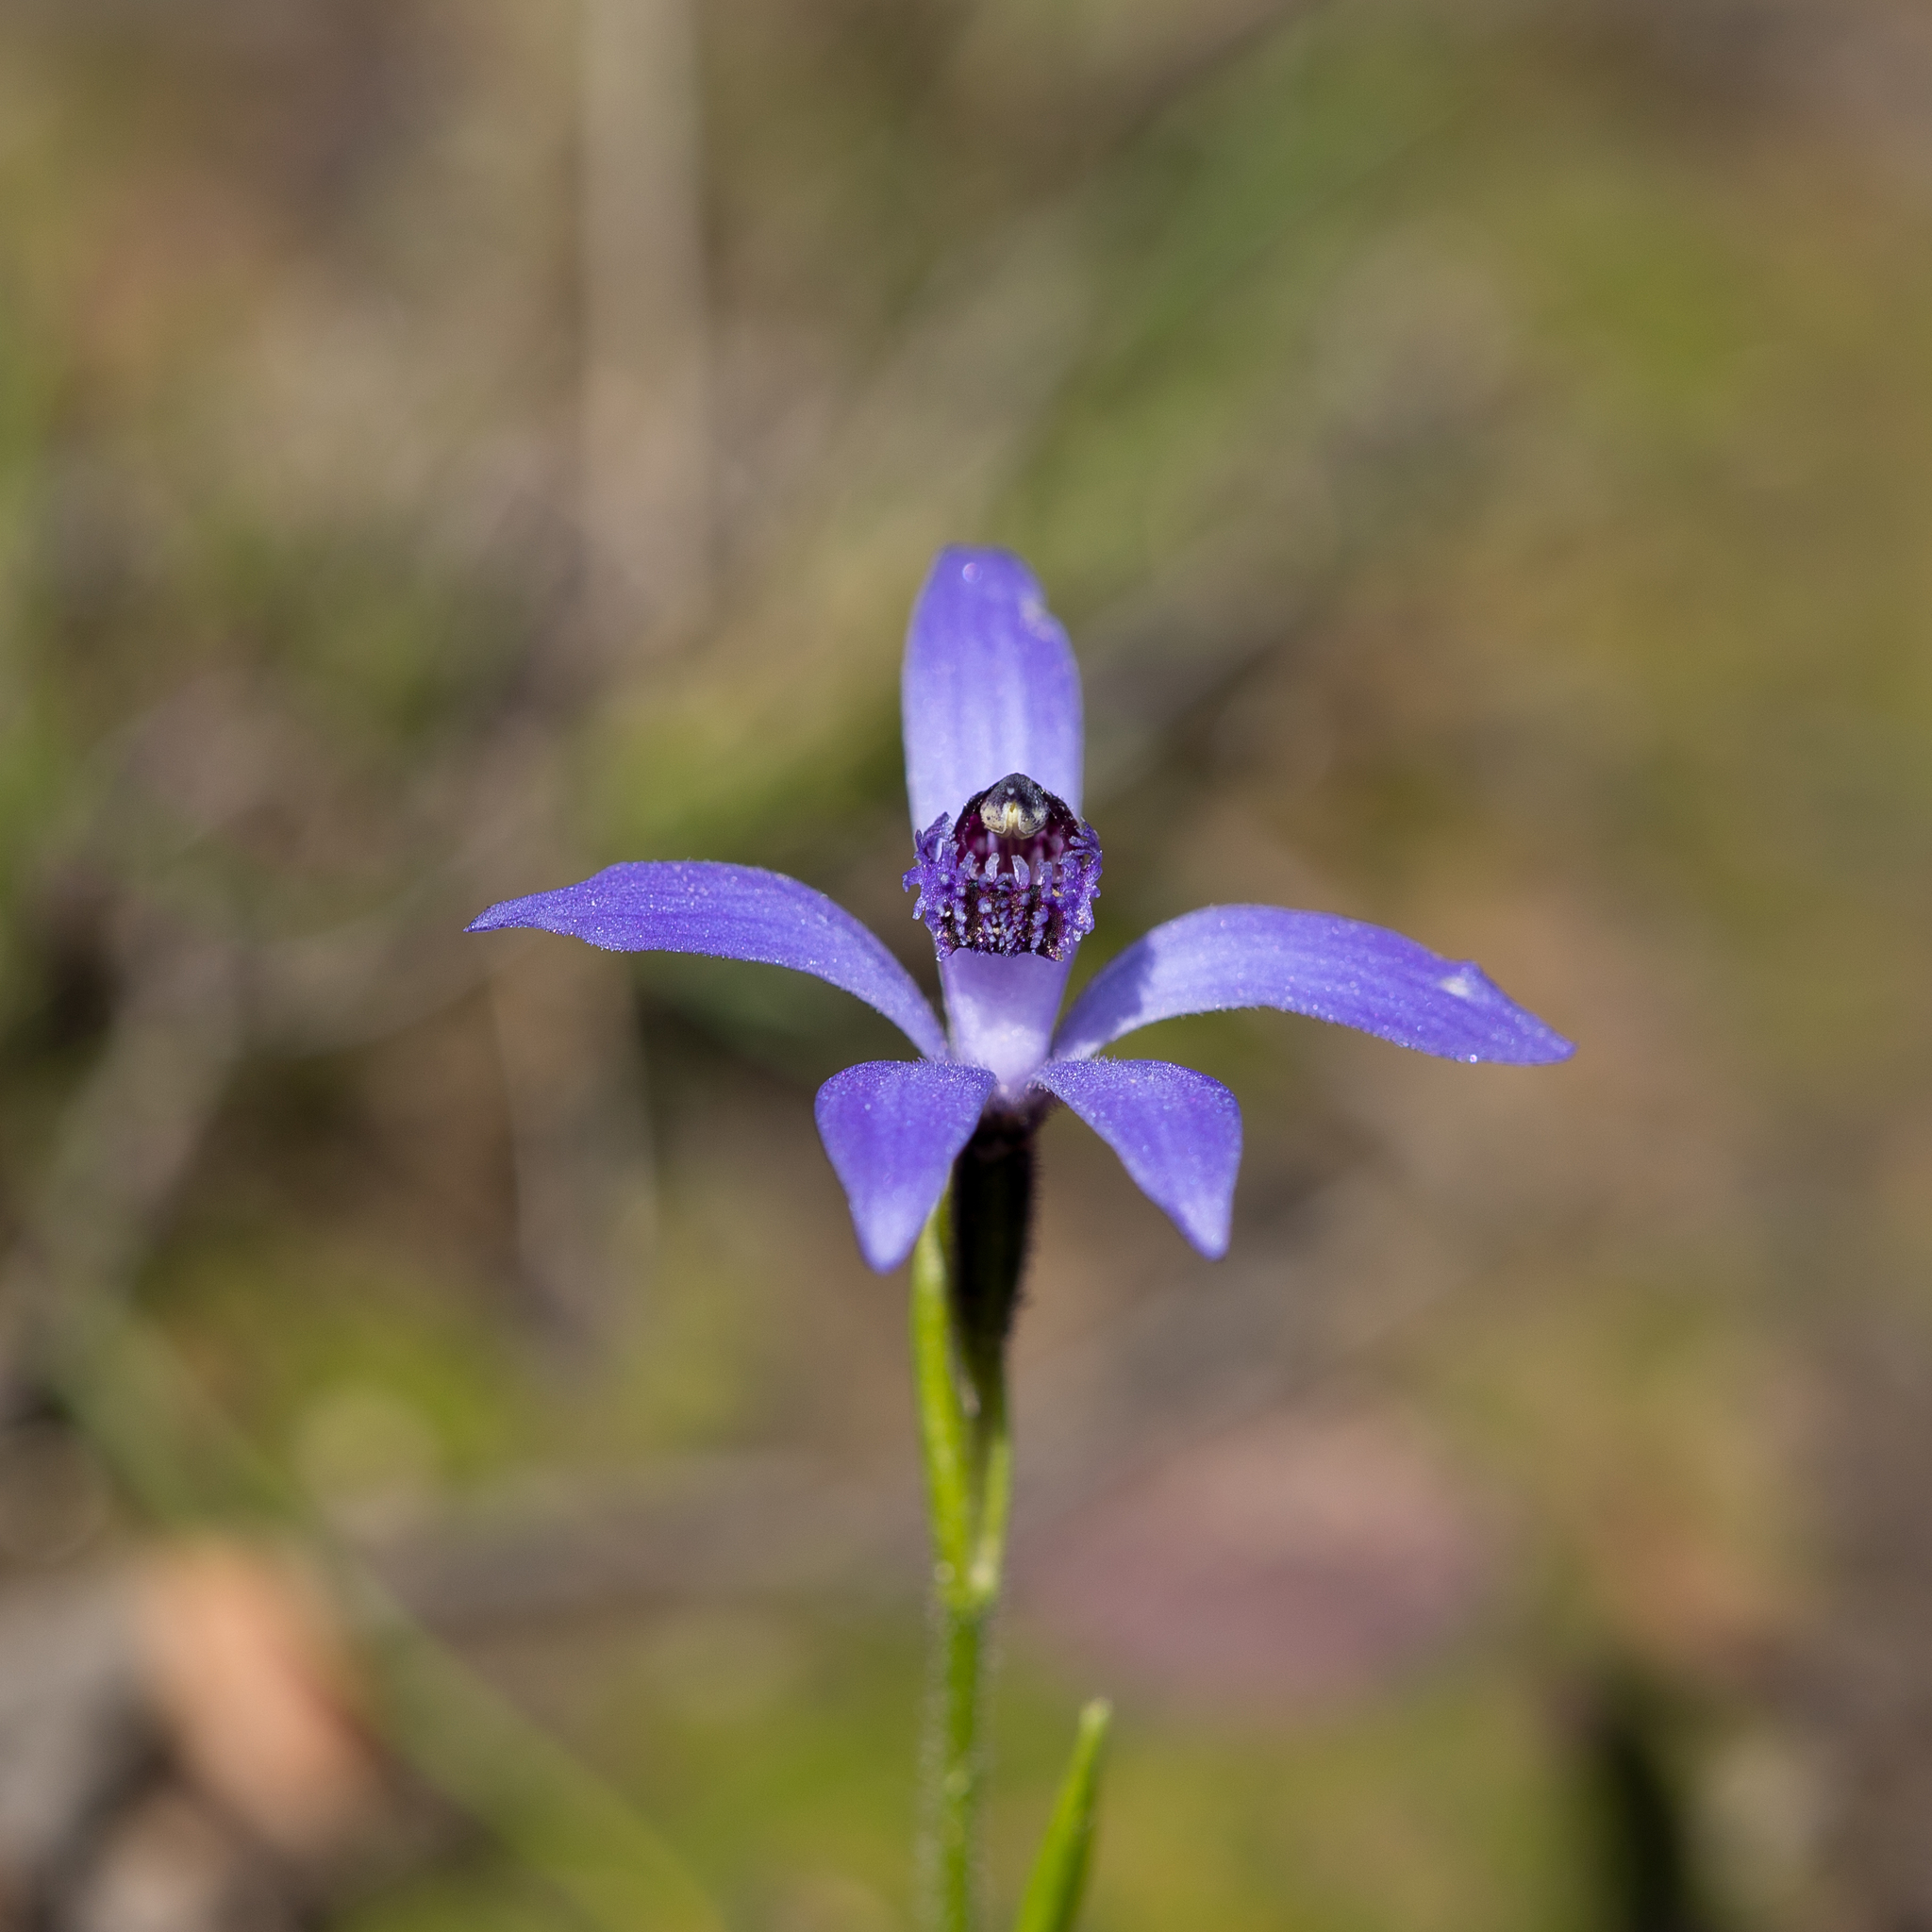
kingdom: Plantae
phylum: Tracheophyta
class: Liliopsida
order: Asparagales
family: Orchidaceae
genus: Pheladenia
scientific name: Pheladenia deformis
